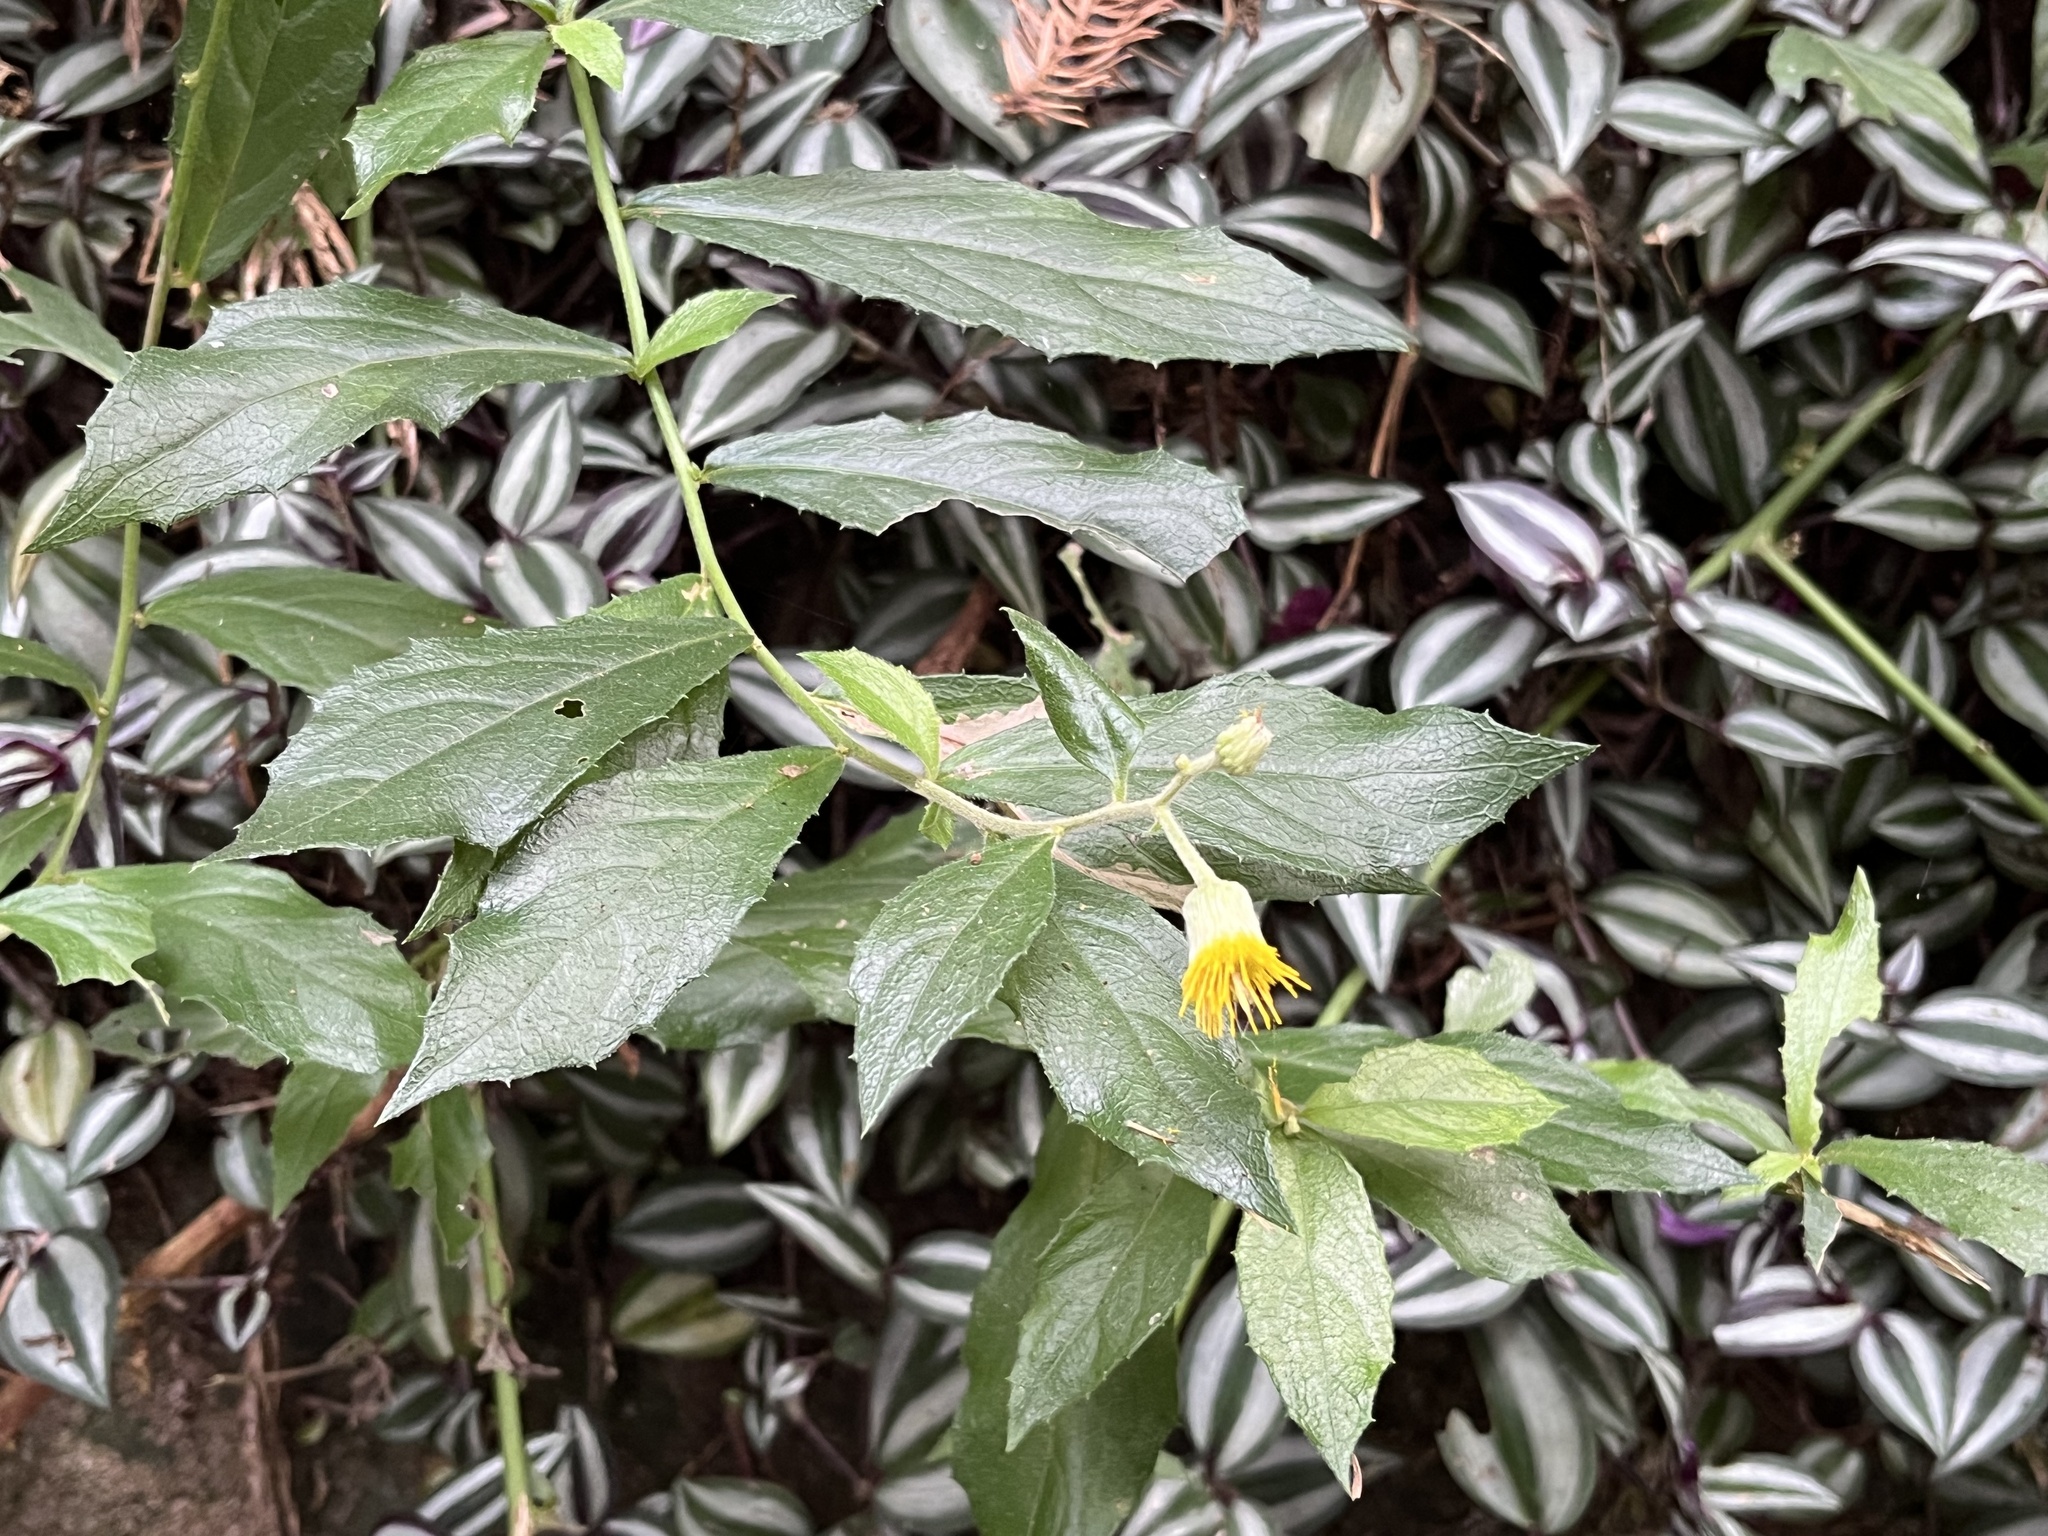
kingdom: Plantae
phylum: Tracheophyta
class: Magnoliopsida
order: Asterales
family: Asteraceae
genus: Blumea
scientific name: Blumea megacephala
